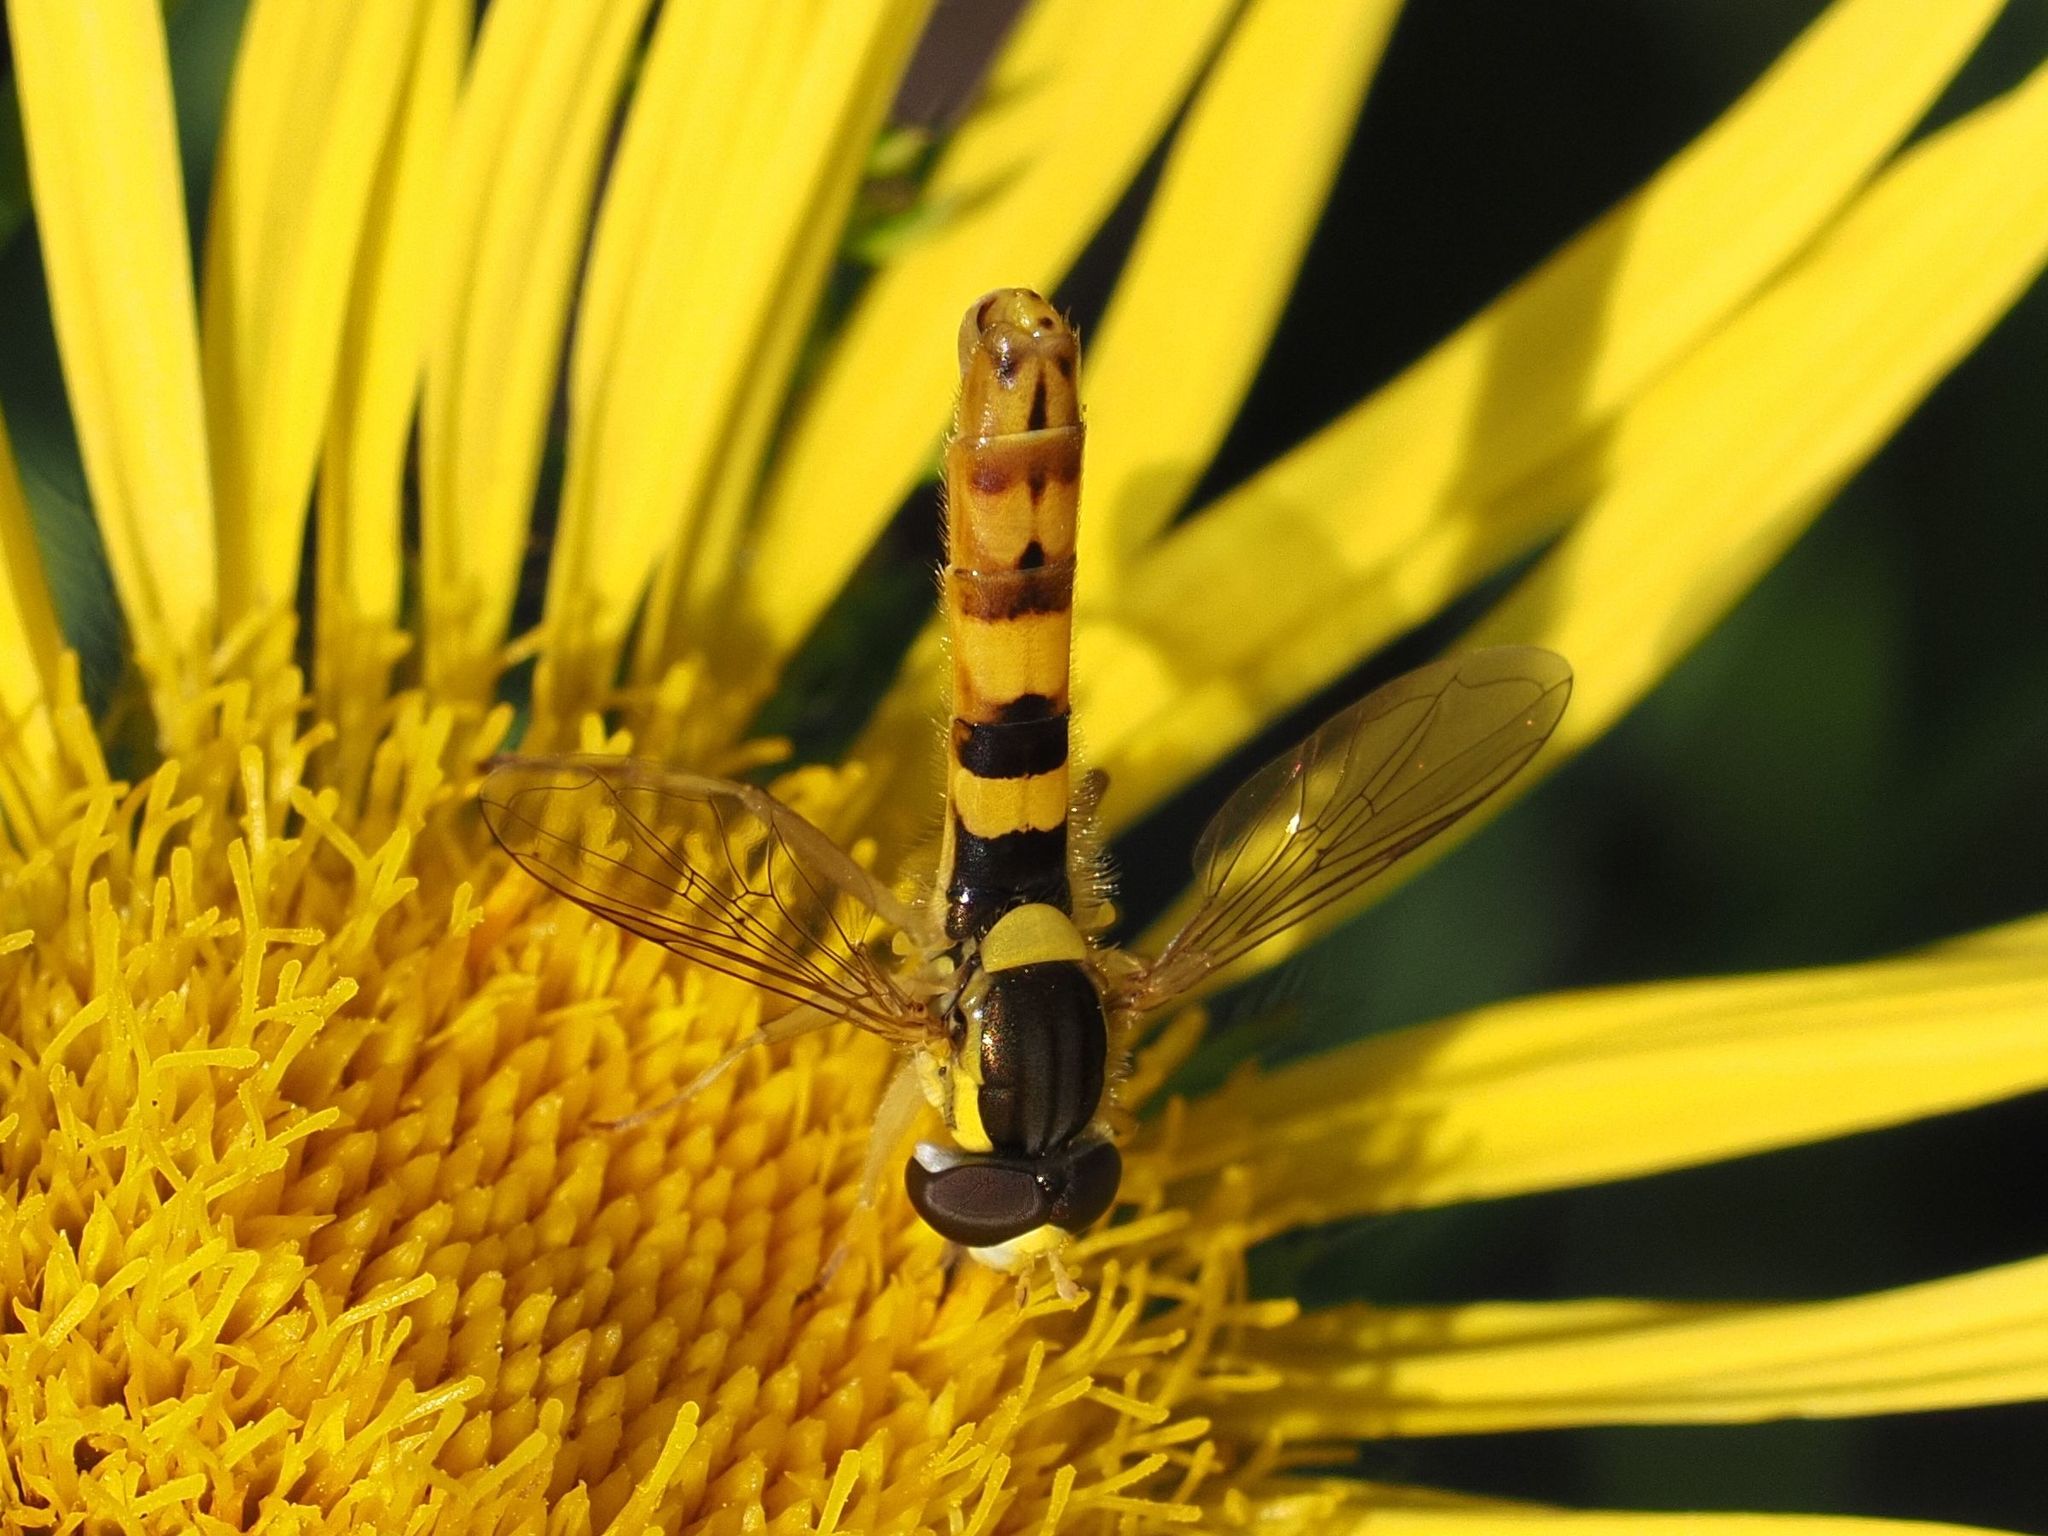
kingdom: Animalia
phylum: Arthropoda
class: Insecta
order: Diptera
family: Syrphidae
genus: Sphaerophoria
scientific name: Sphaerophoria scripta
